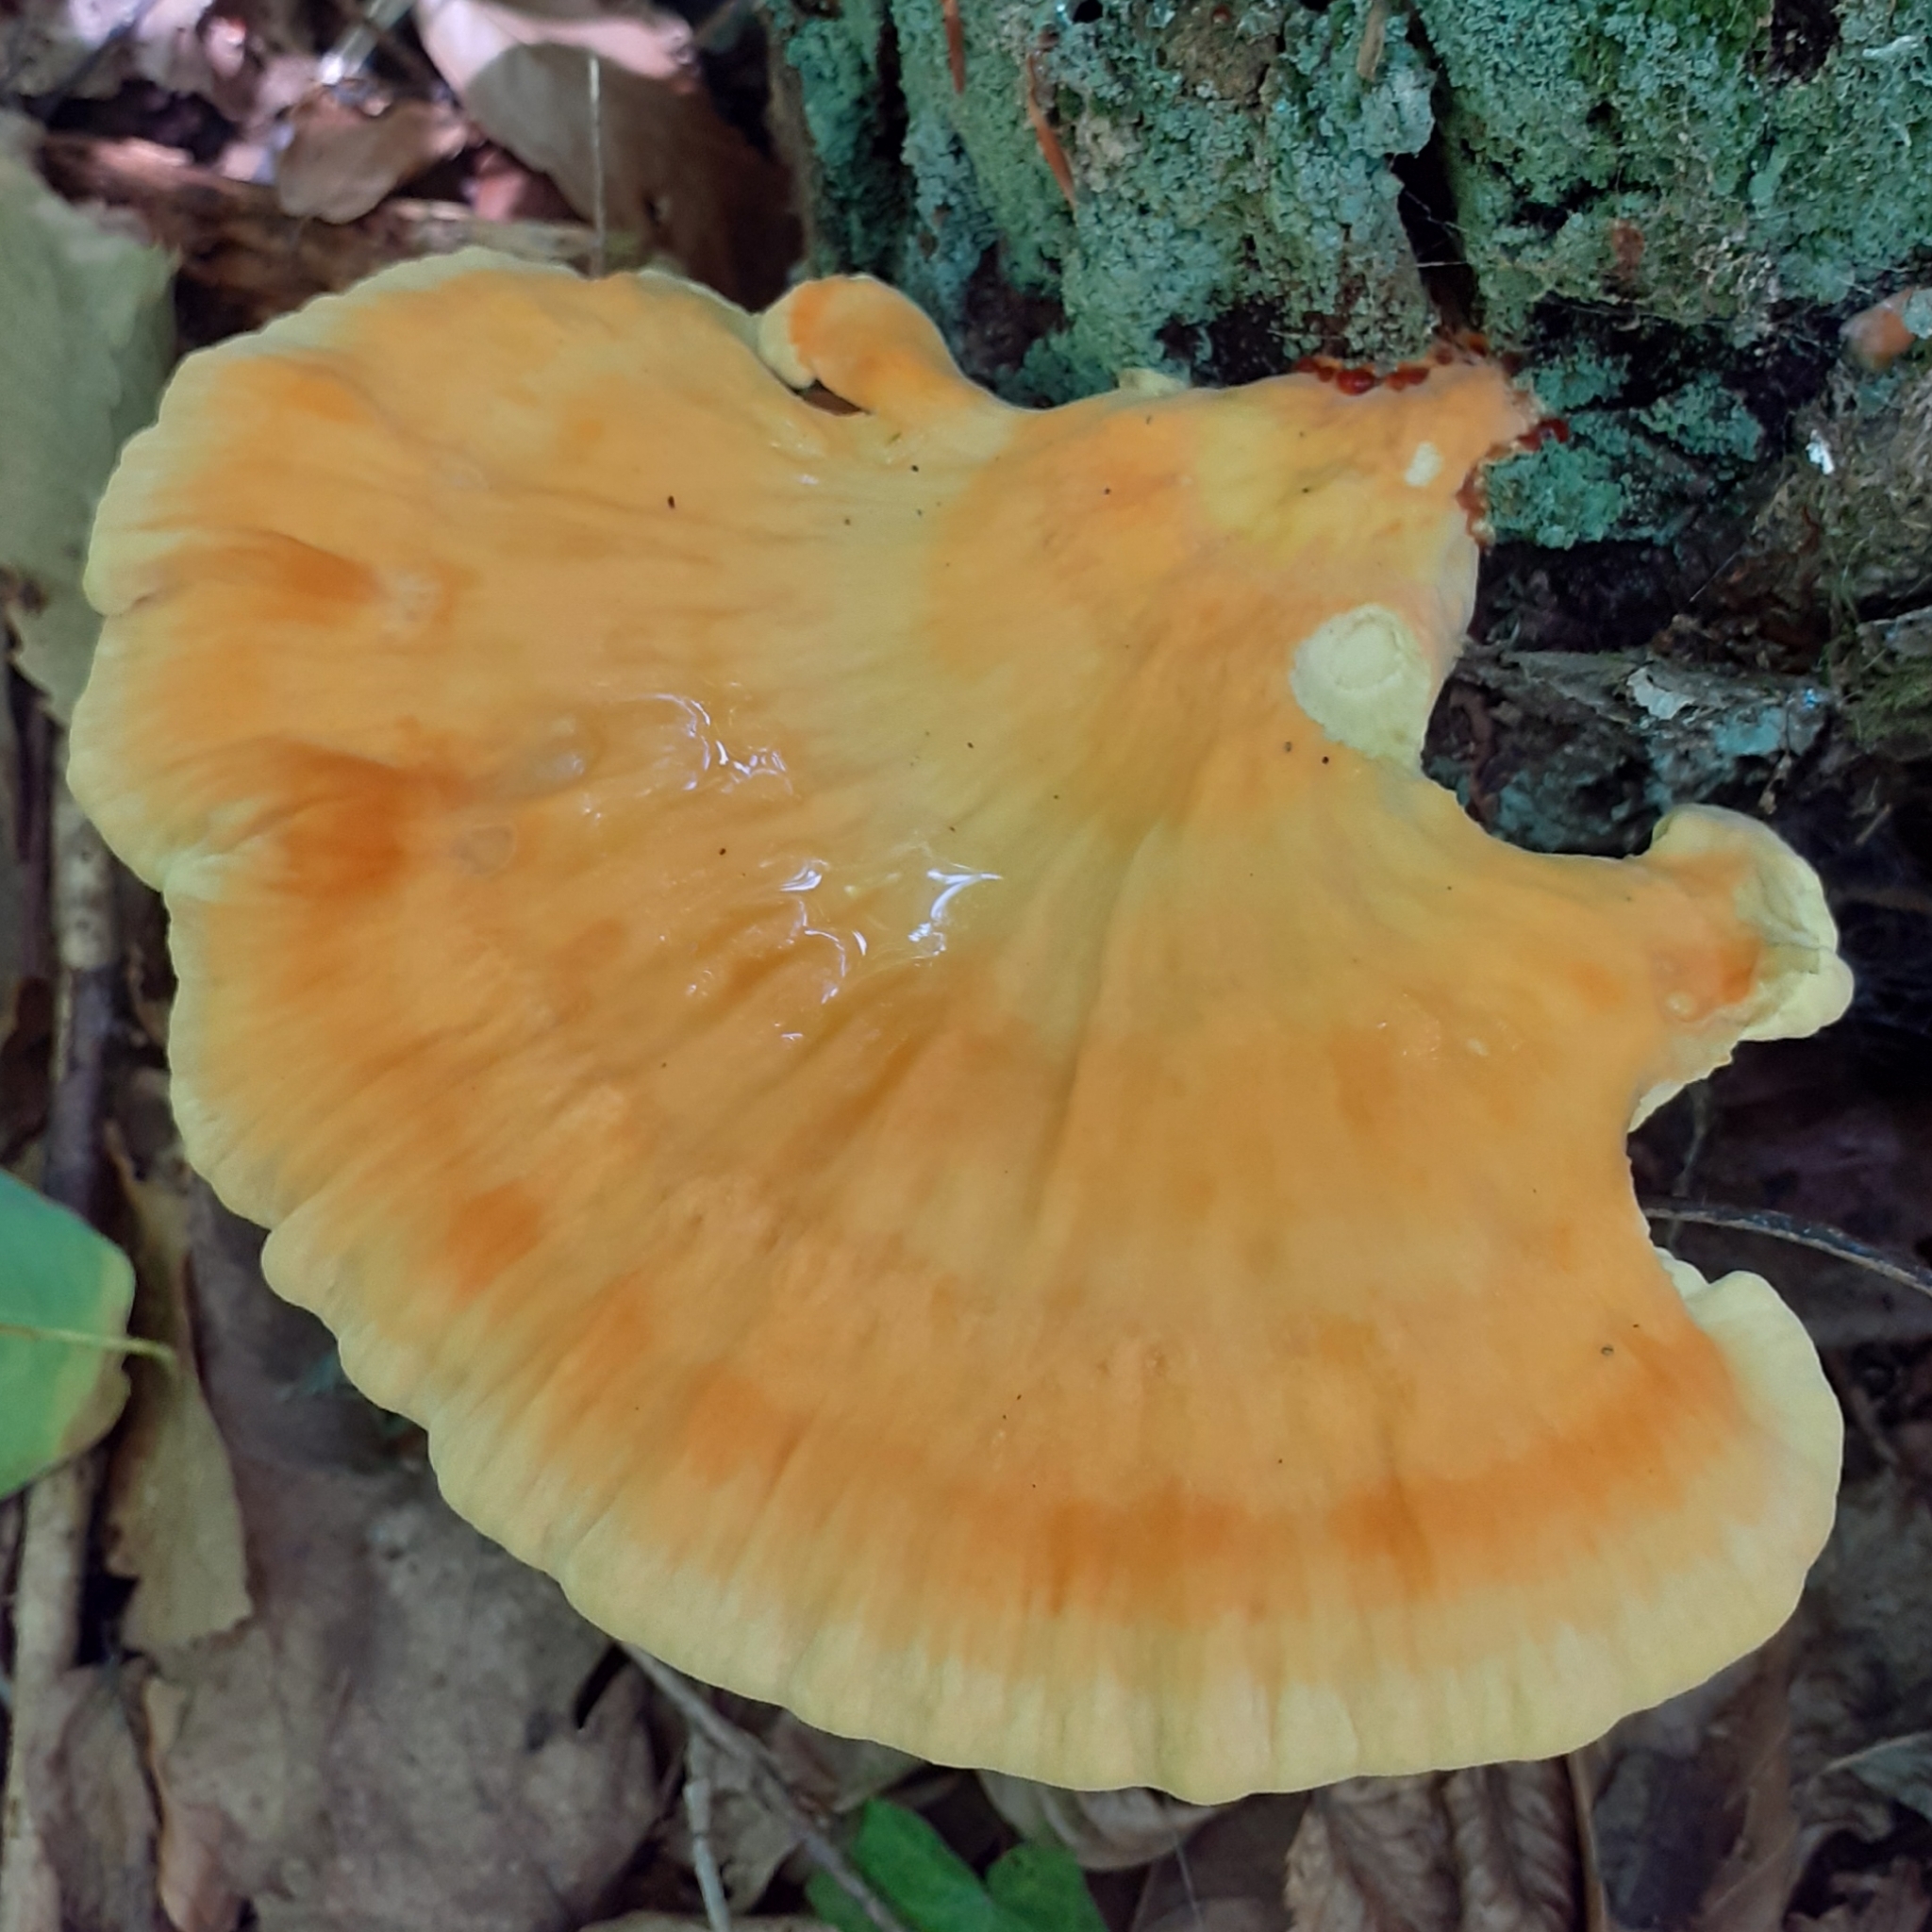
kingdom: Fungi
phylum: Basidiomycota
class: Agaricomycetes
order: Polyporales
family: Laetiporaceae
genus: Laetiporus
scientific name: Laetiporus sulphureus
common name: Chicken of the woods
